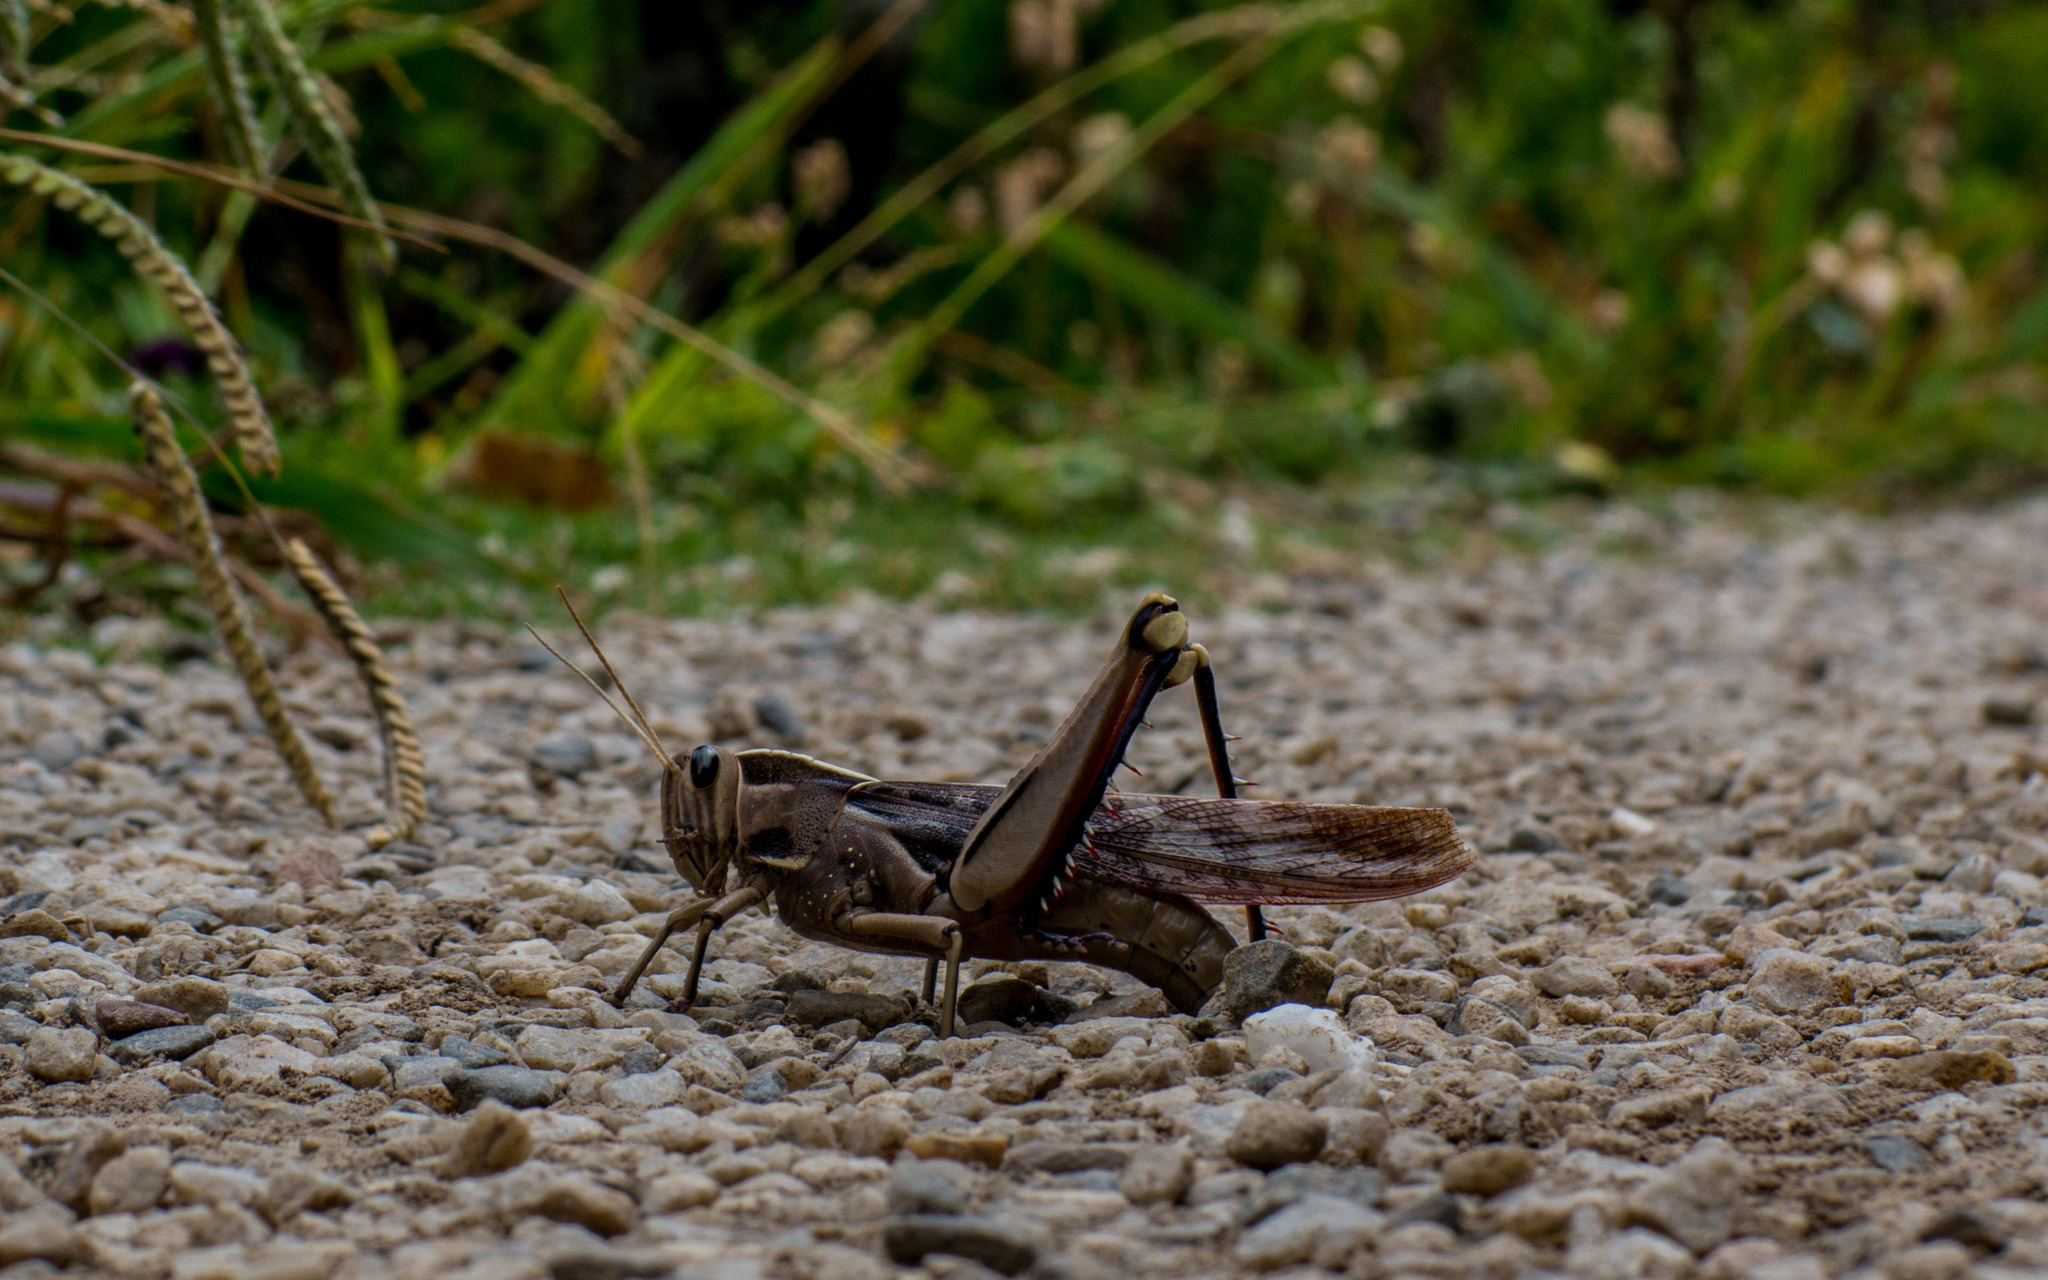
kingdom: Animalia
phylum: Arthropoda
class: Insecta
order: Orthoptera
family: Acrididae
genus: Acanthacris
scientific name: Acanthacris ruficornis
